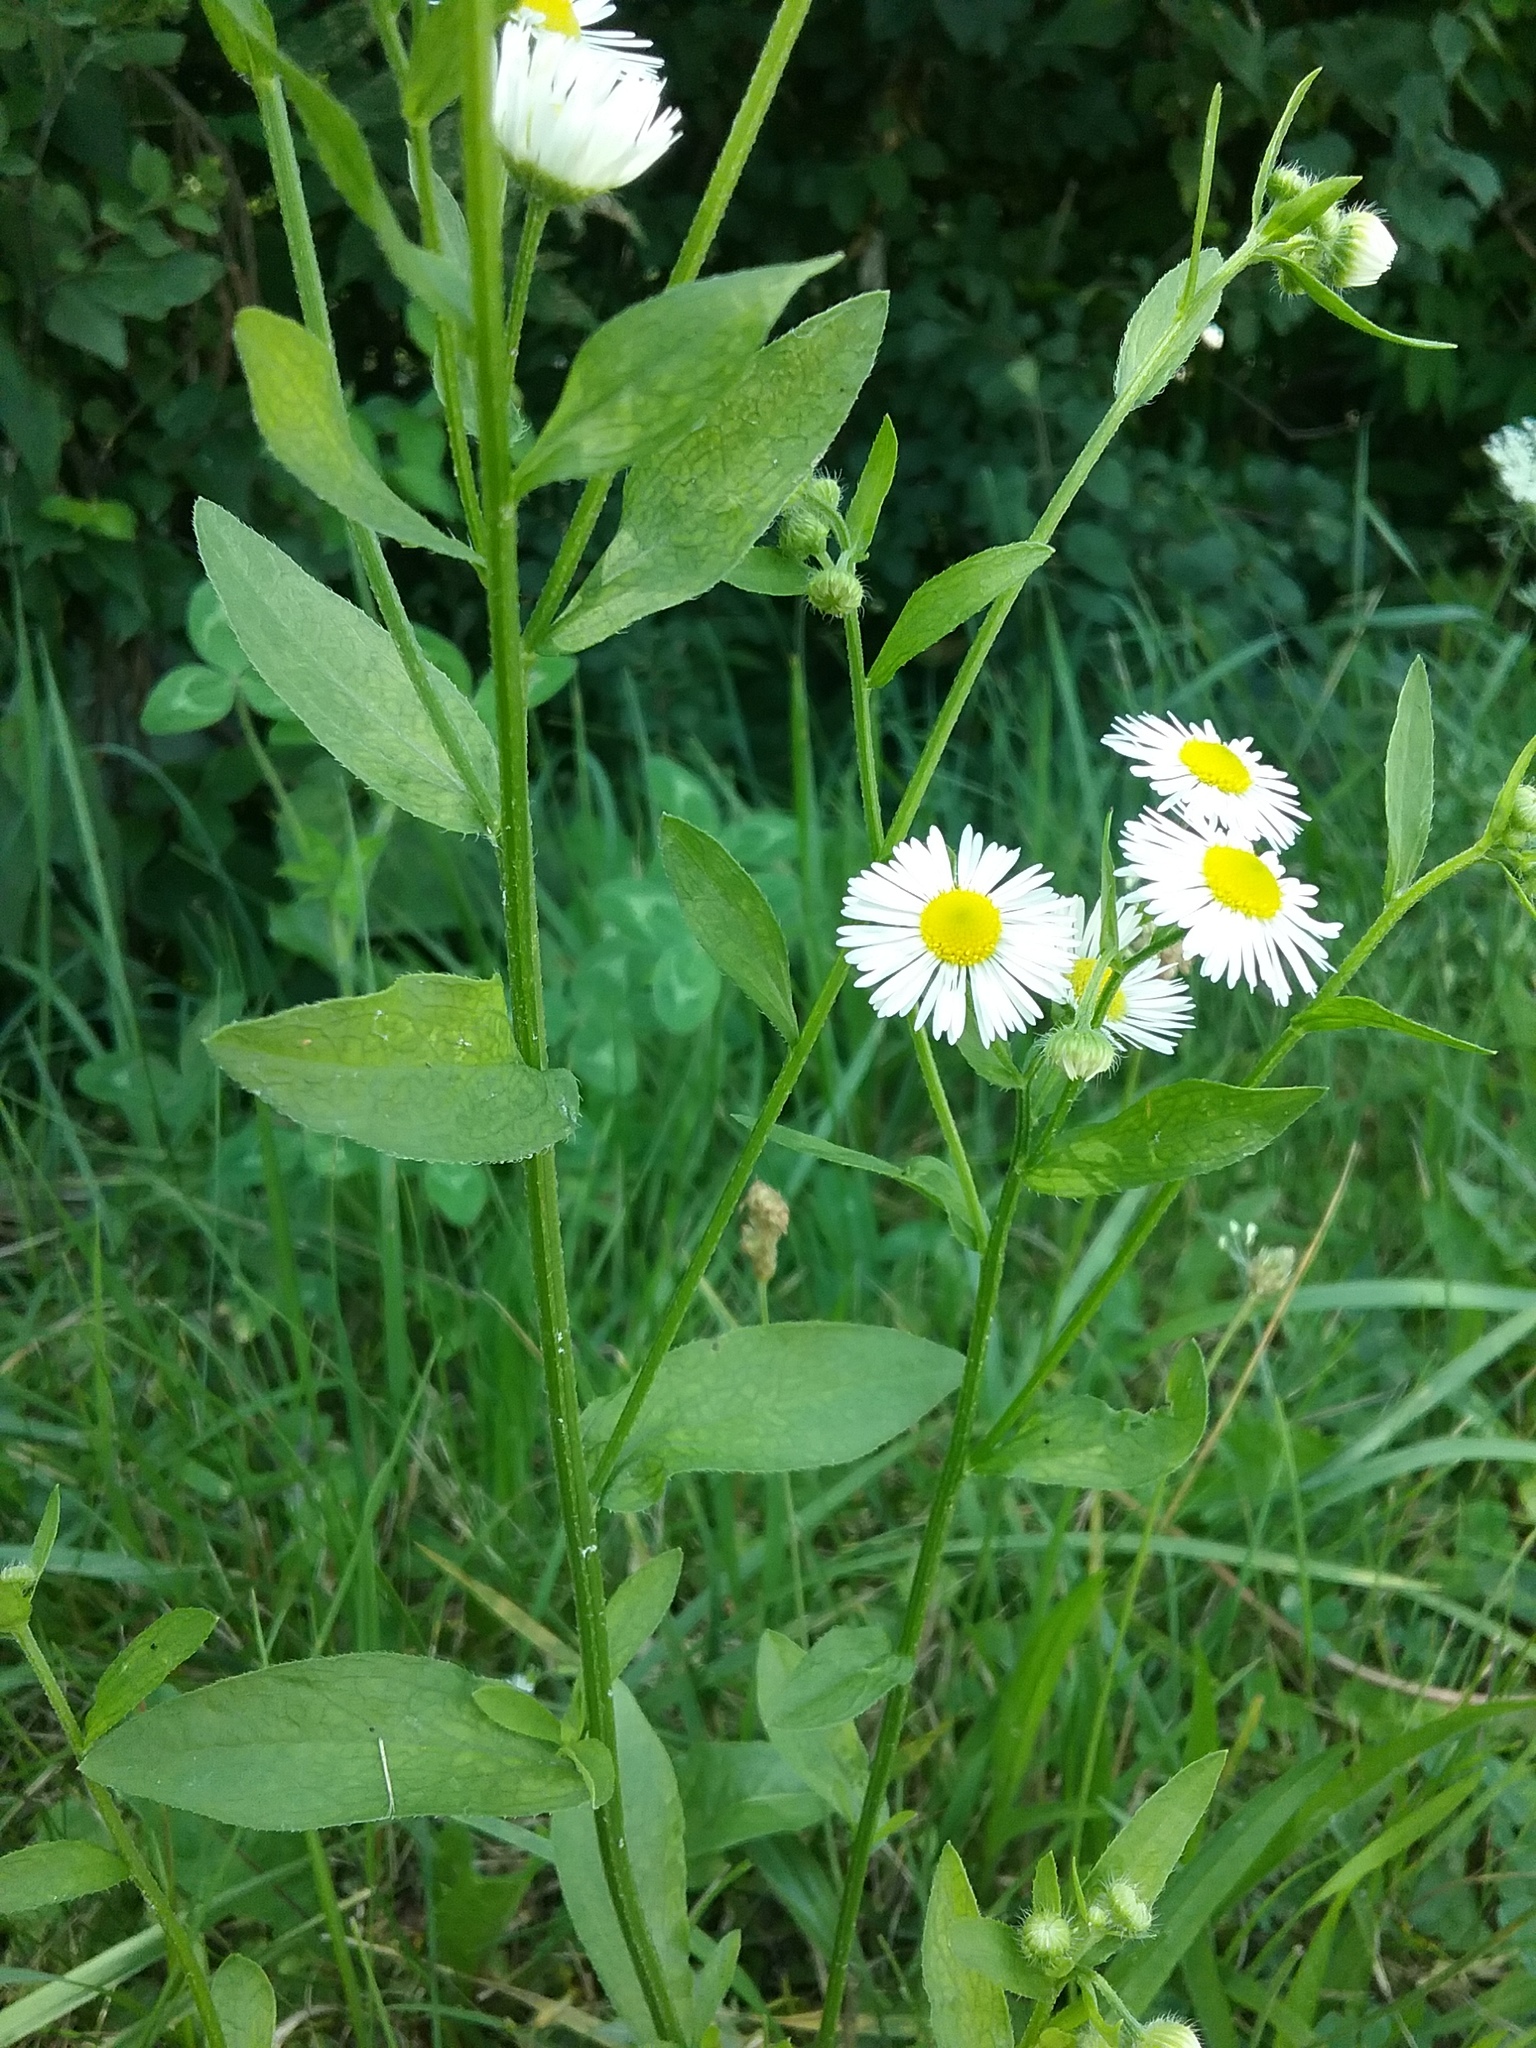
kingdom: Plantae
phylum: Tracheophyta
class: Magnoliopsida
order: Asterales
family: Asteraceae
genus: Erigeron
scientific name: Erigeron strigosus
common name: Common eastern fleabane
